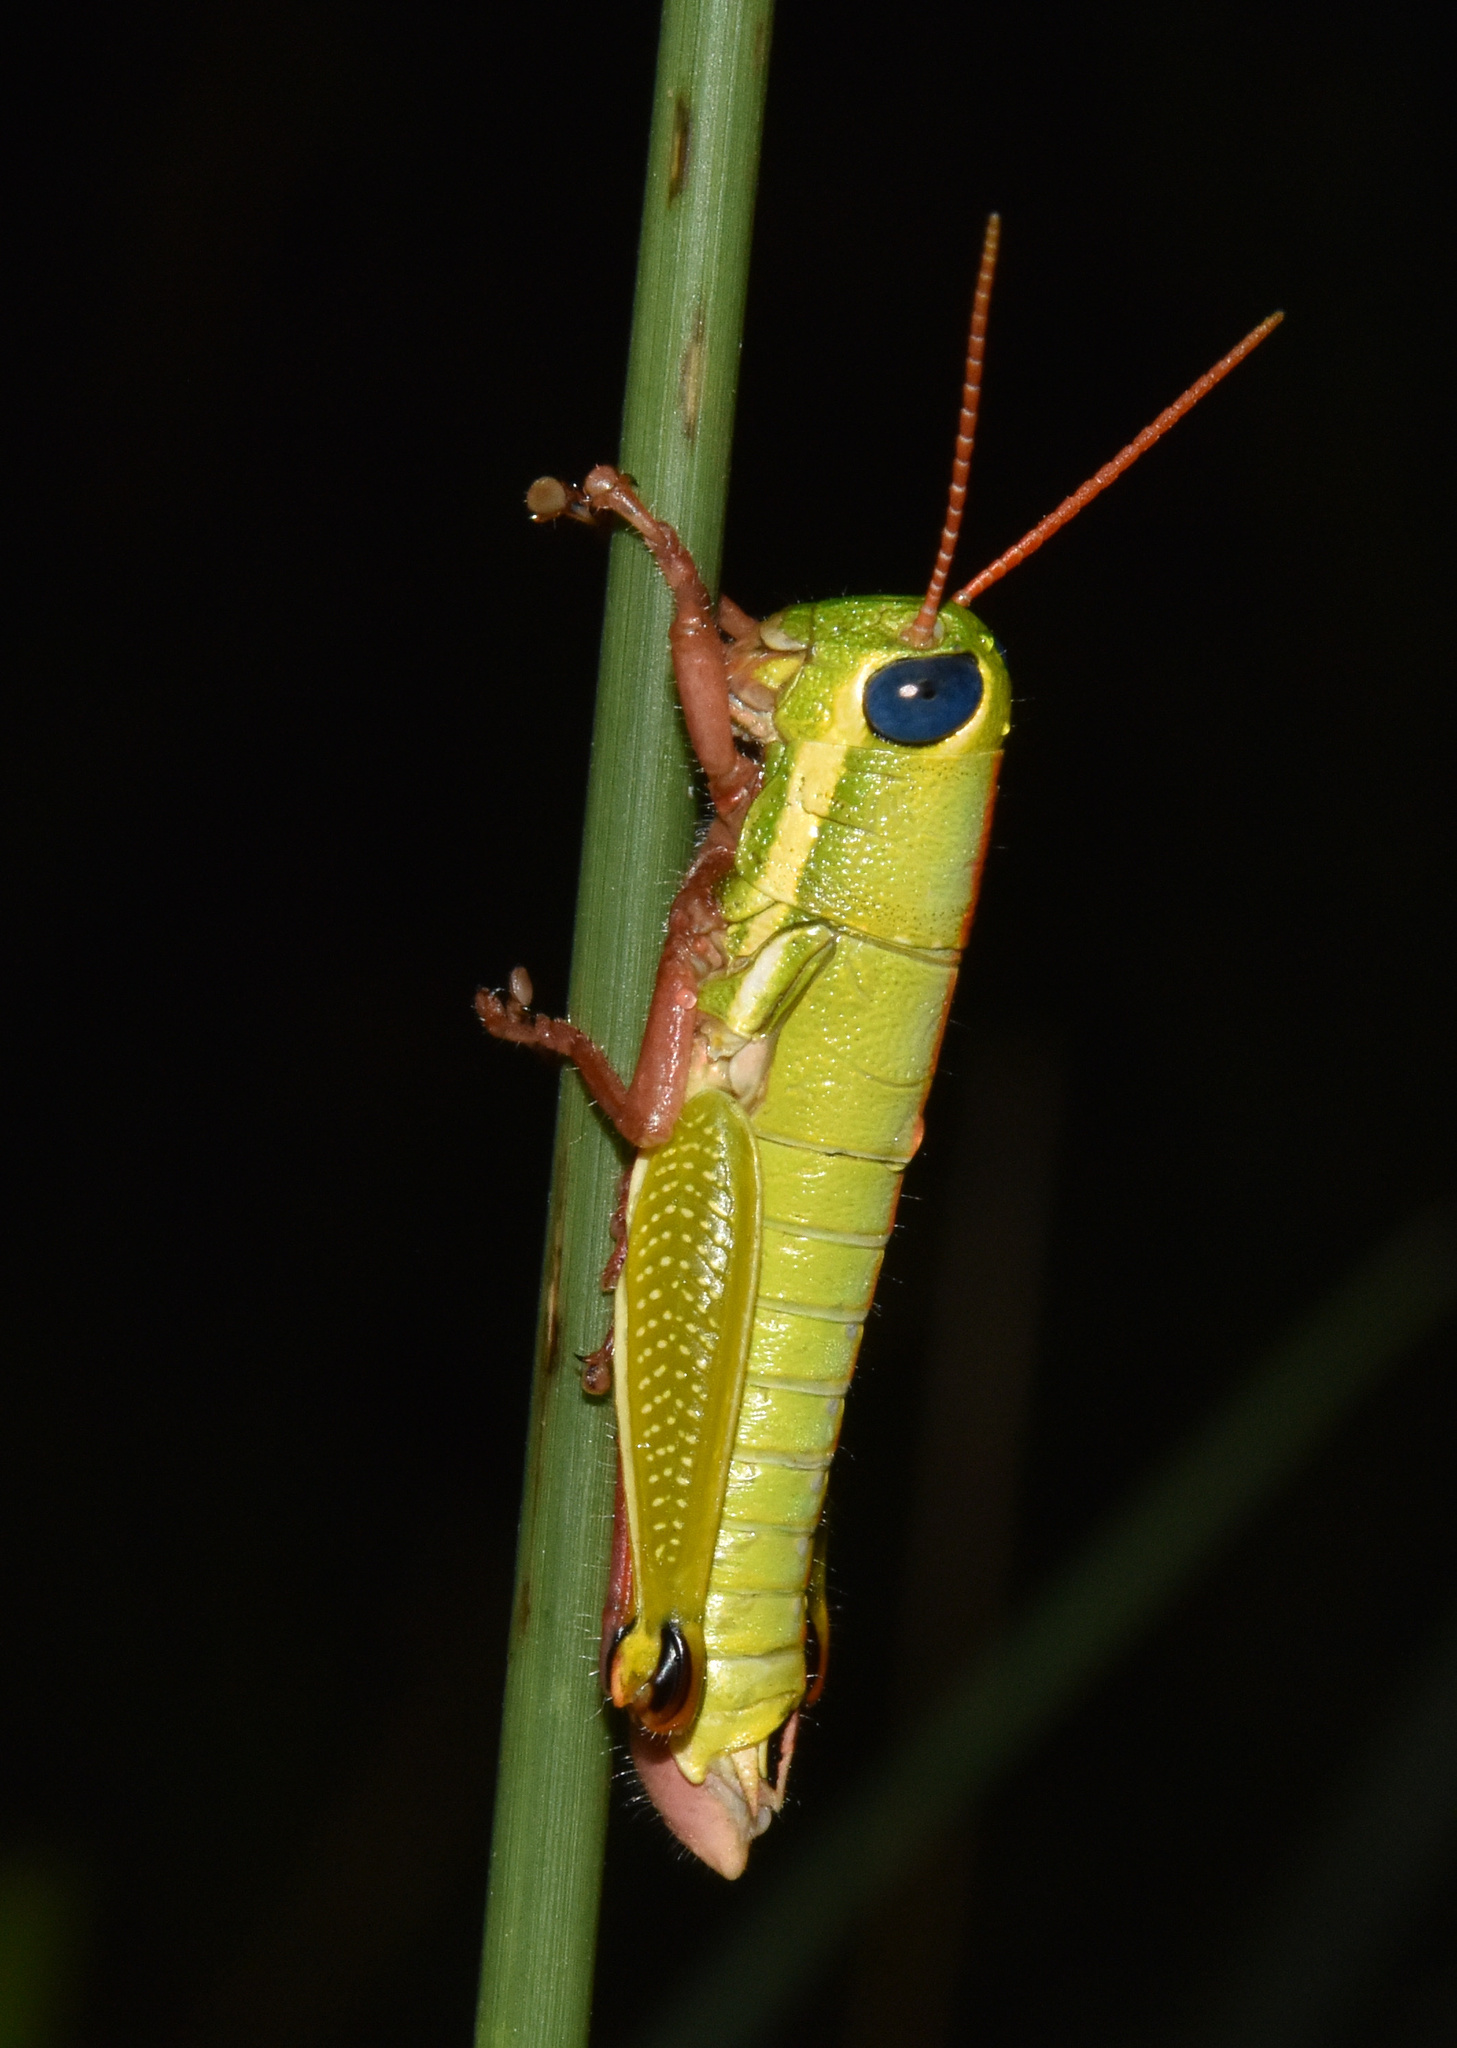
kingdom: Animalia
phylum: Arthropoda
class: Insecta
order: Orthoptera
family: Lentulidae
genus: Lentula
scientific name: Lentula obtusifrons
